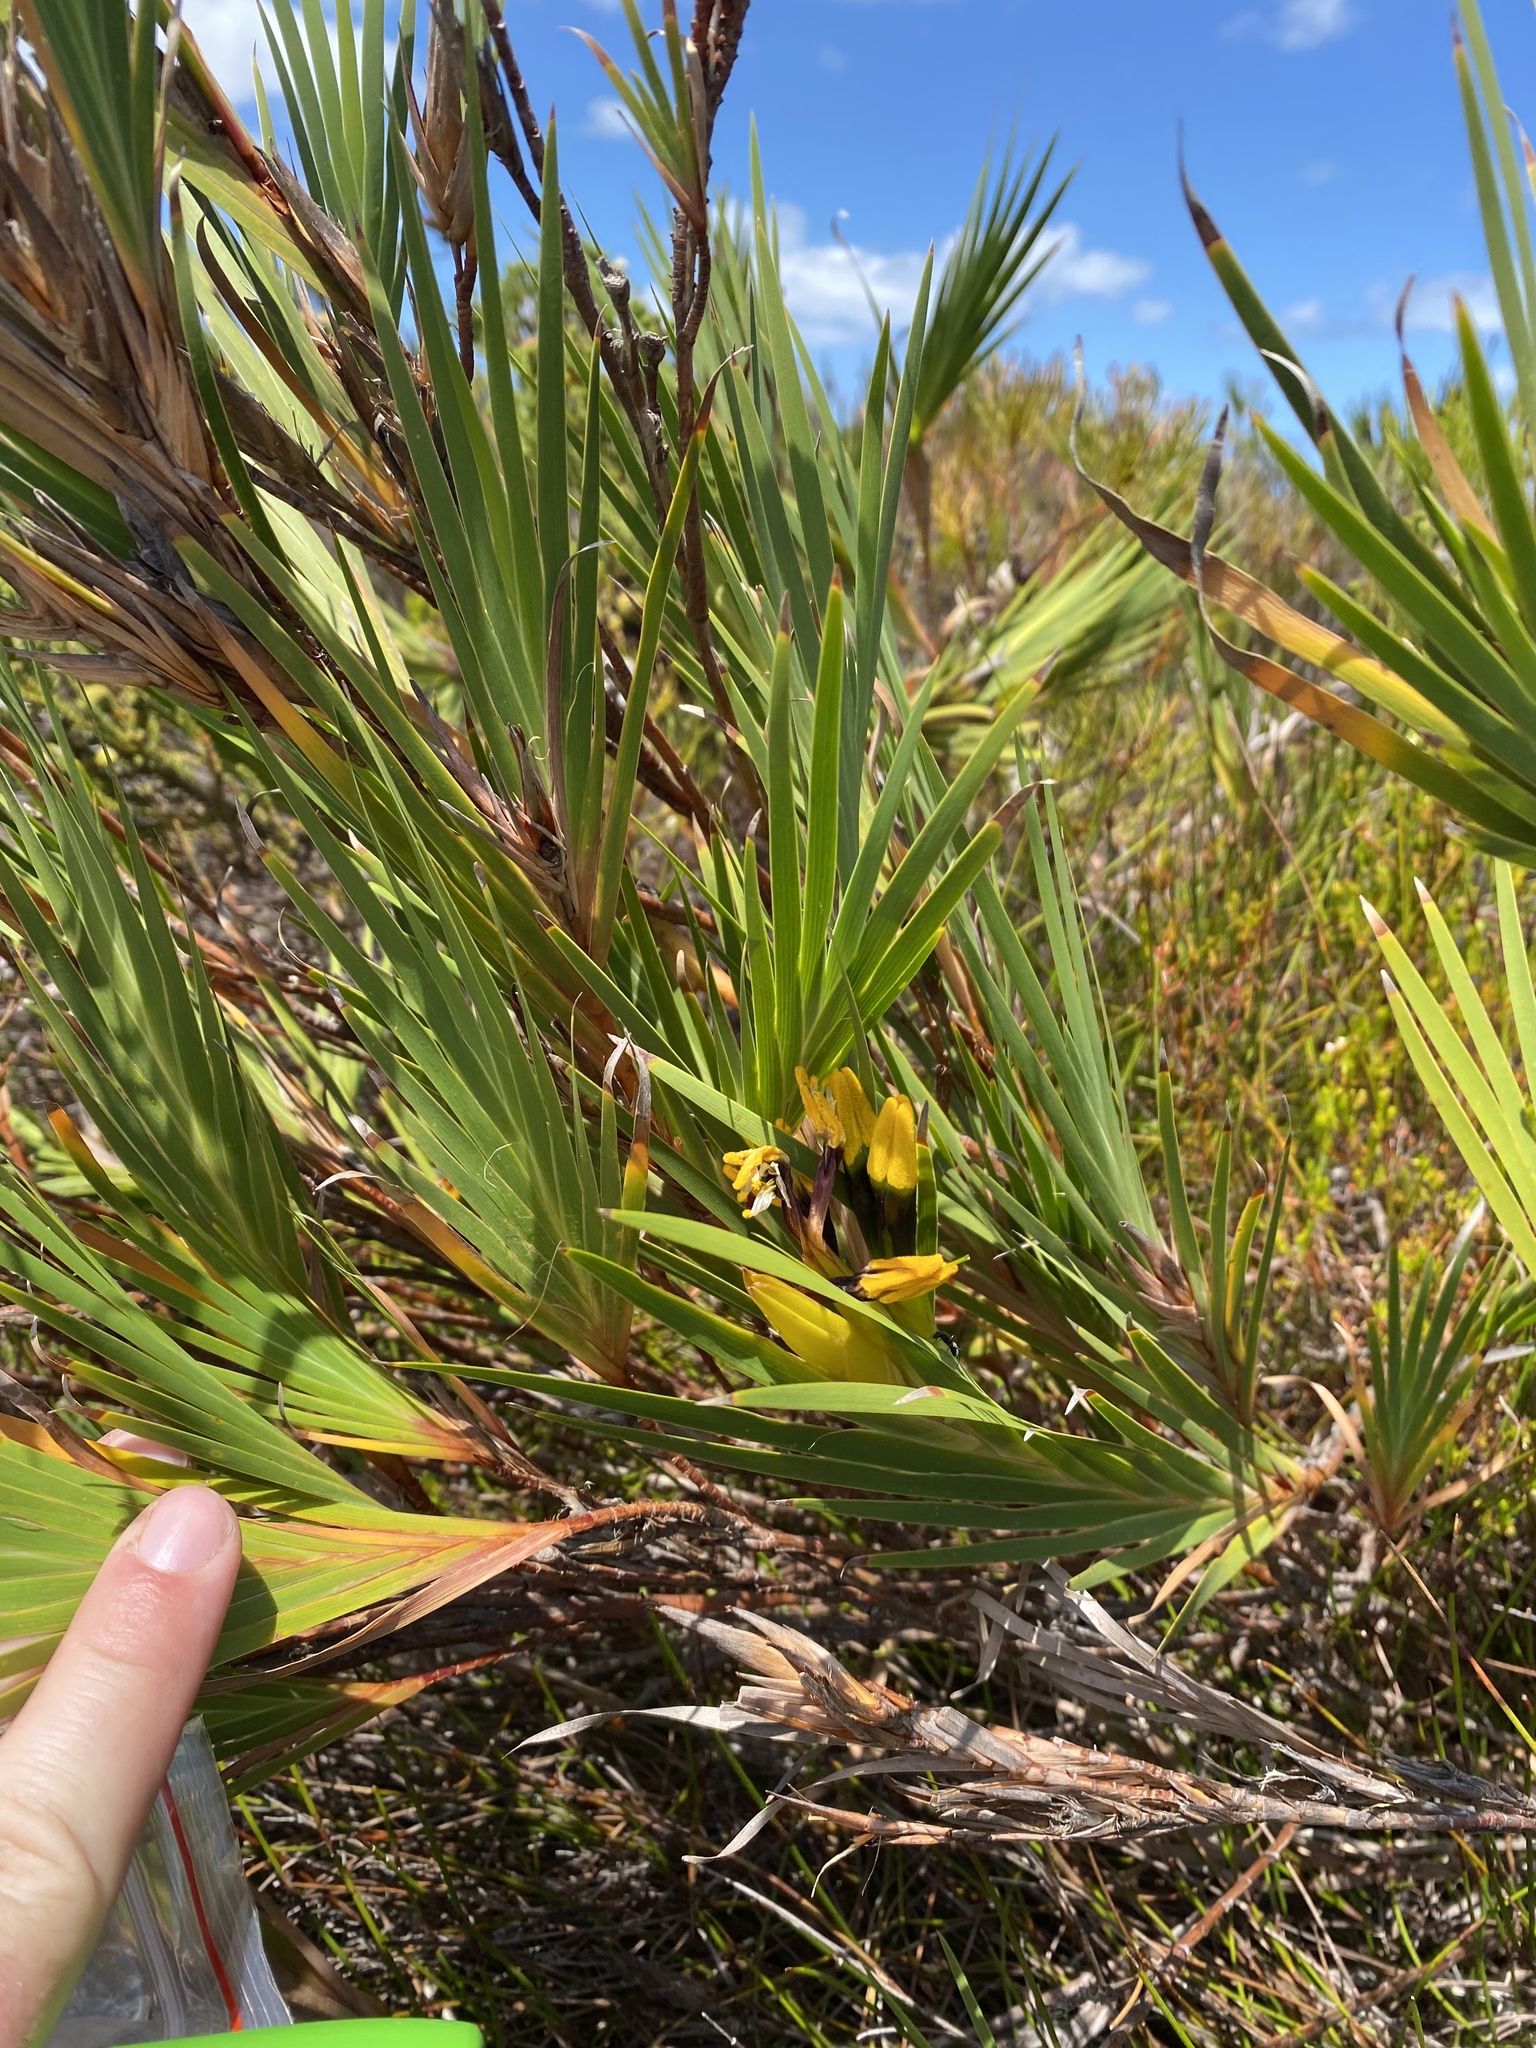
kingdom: Plantae
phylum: Tracheophyta
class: Liliopsida
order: Asparagales
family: Iridaceae
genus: Witsenia
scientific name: Witsenia maura
